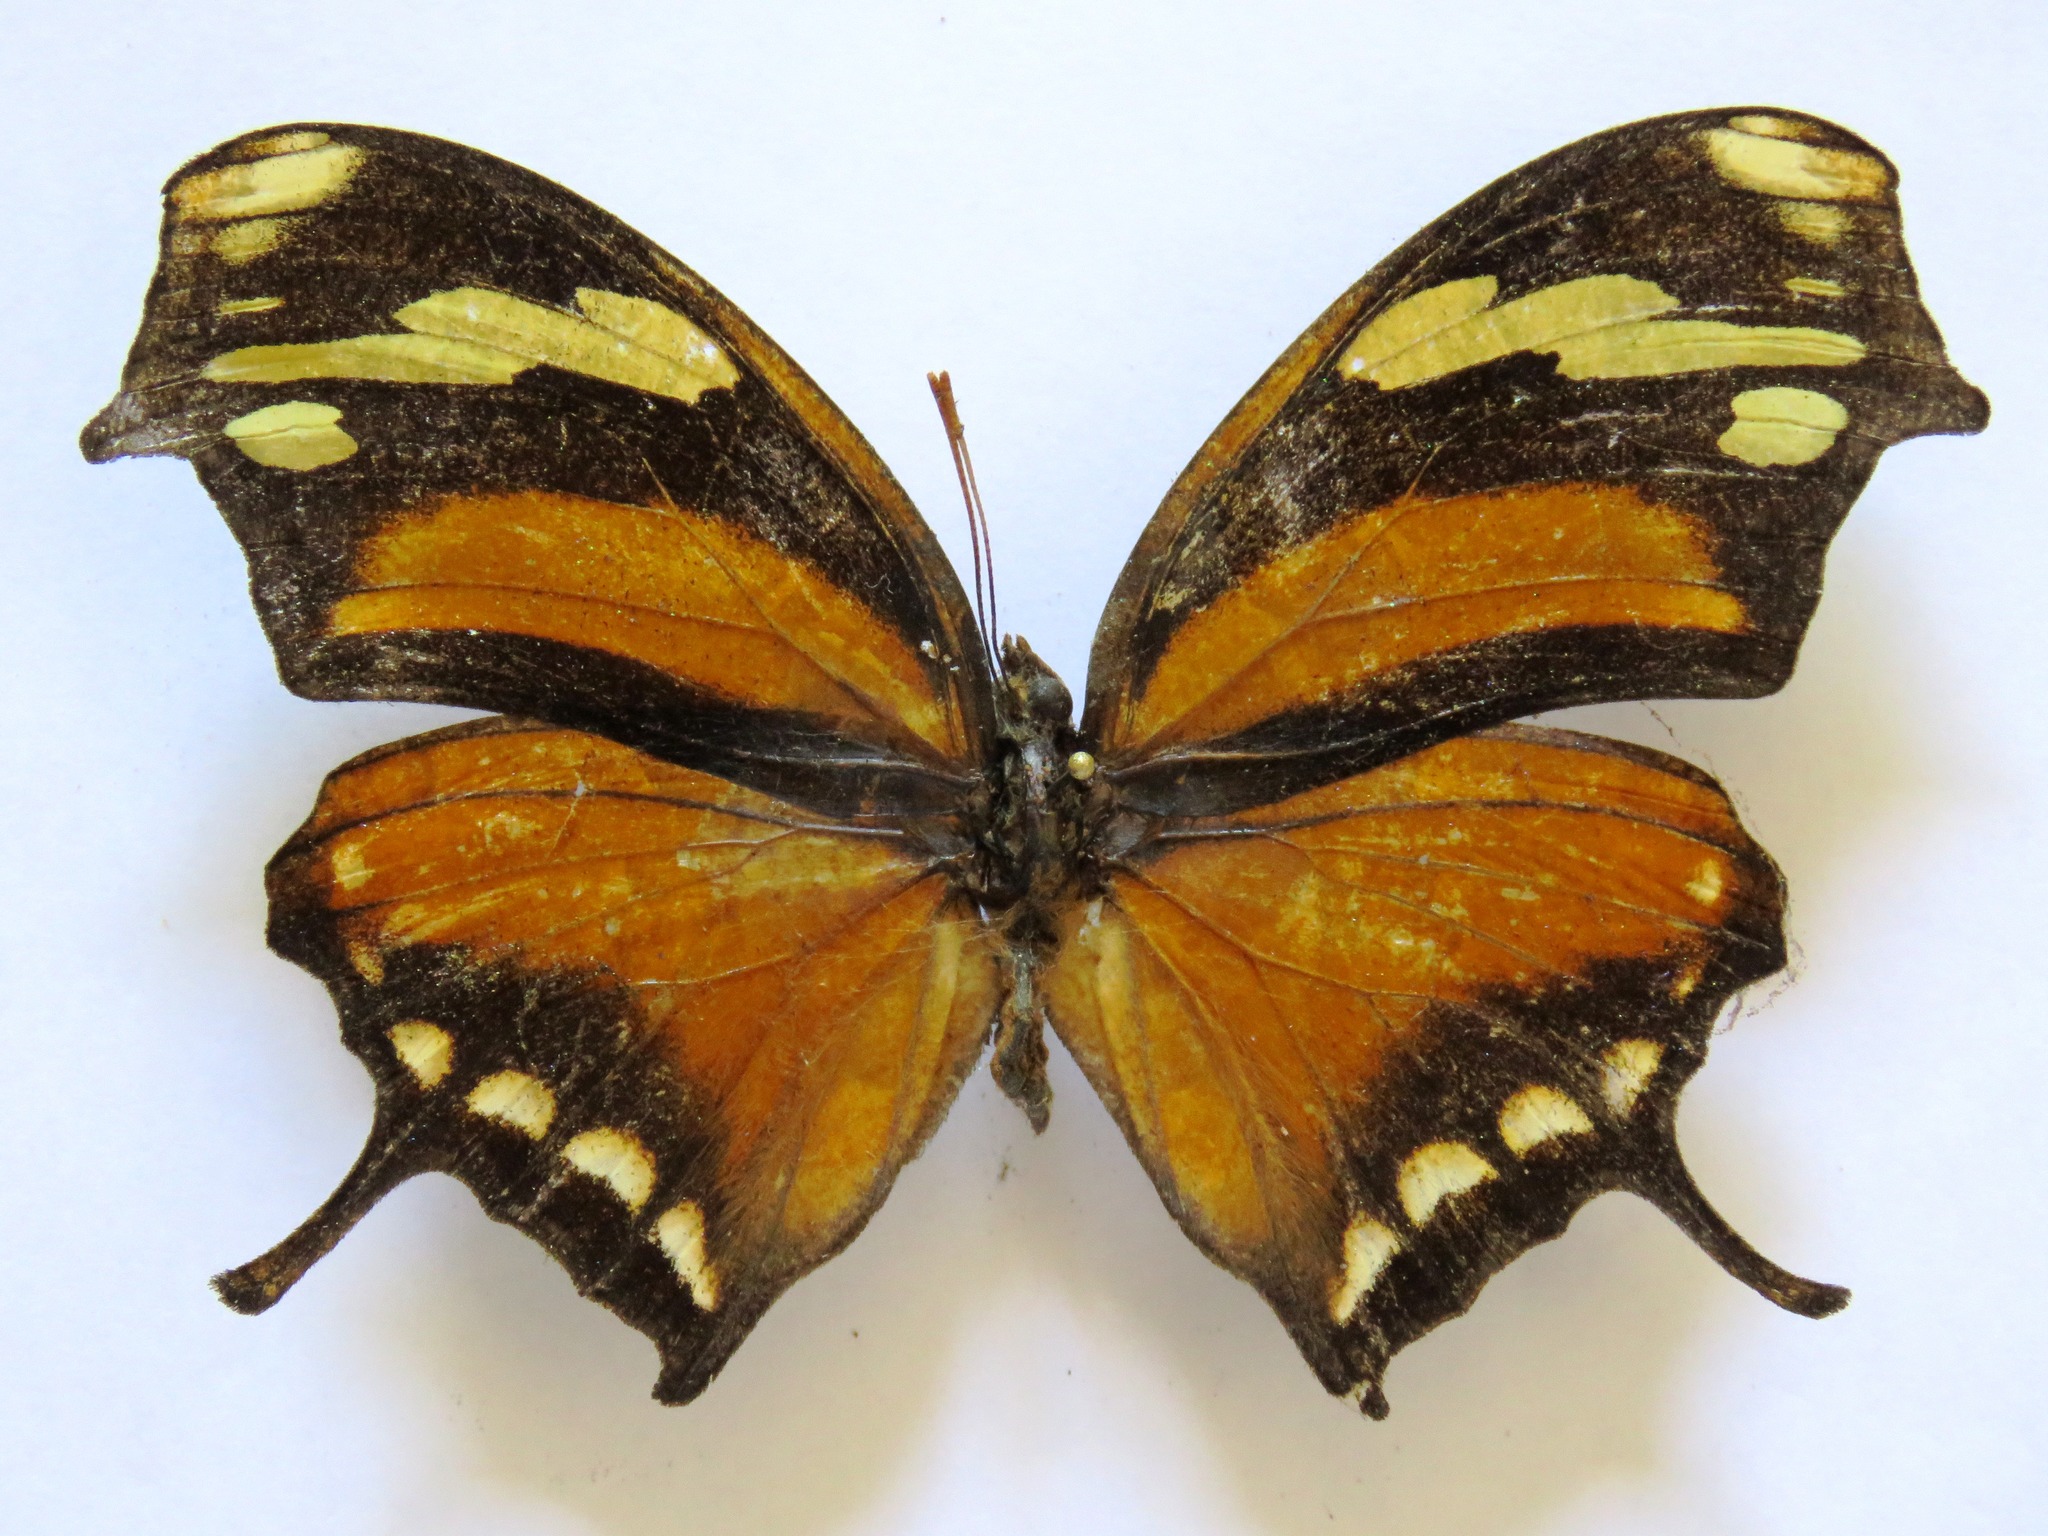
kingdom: Animalia
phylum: Arthropoda
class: Insecta
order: Lepidoptera
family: Nymphalidae
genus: Consul
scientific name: Consul fabius
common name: Tiger leafwing
